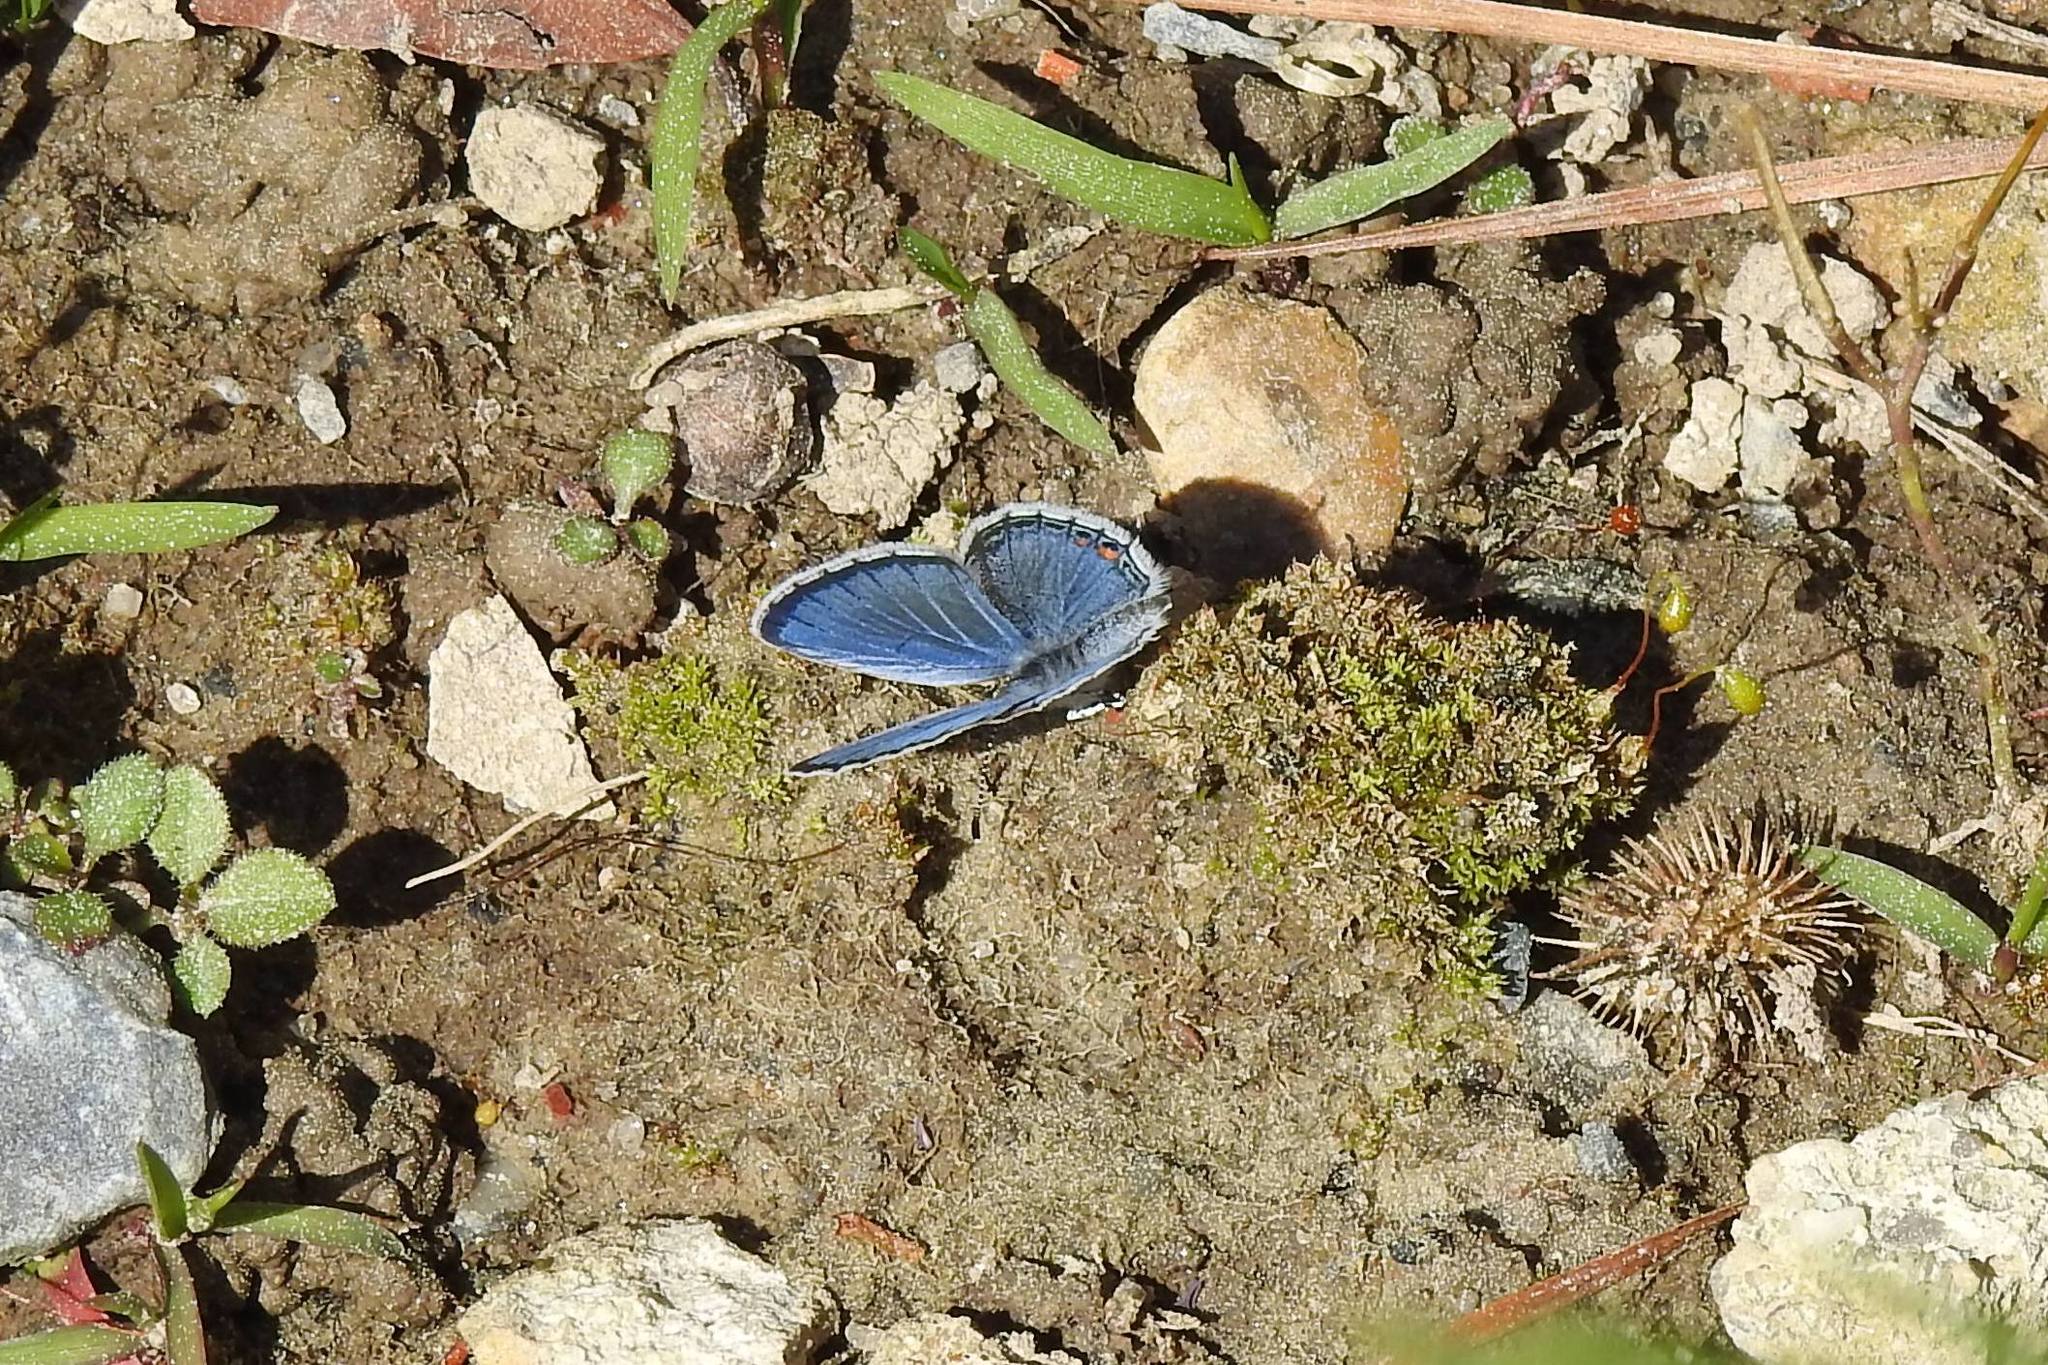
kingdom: Animalia
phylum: Arthropoda
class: Insecta
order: Lepidoptera
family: Lycaenidae
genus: Elkalyce
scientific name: Elkalyce comyntas
